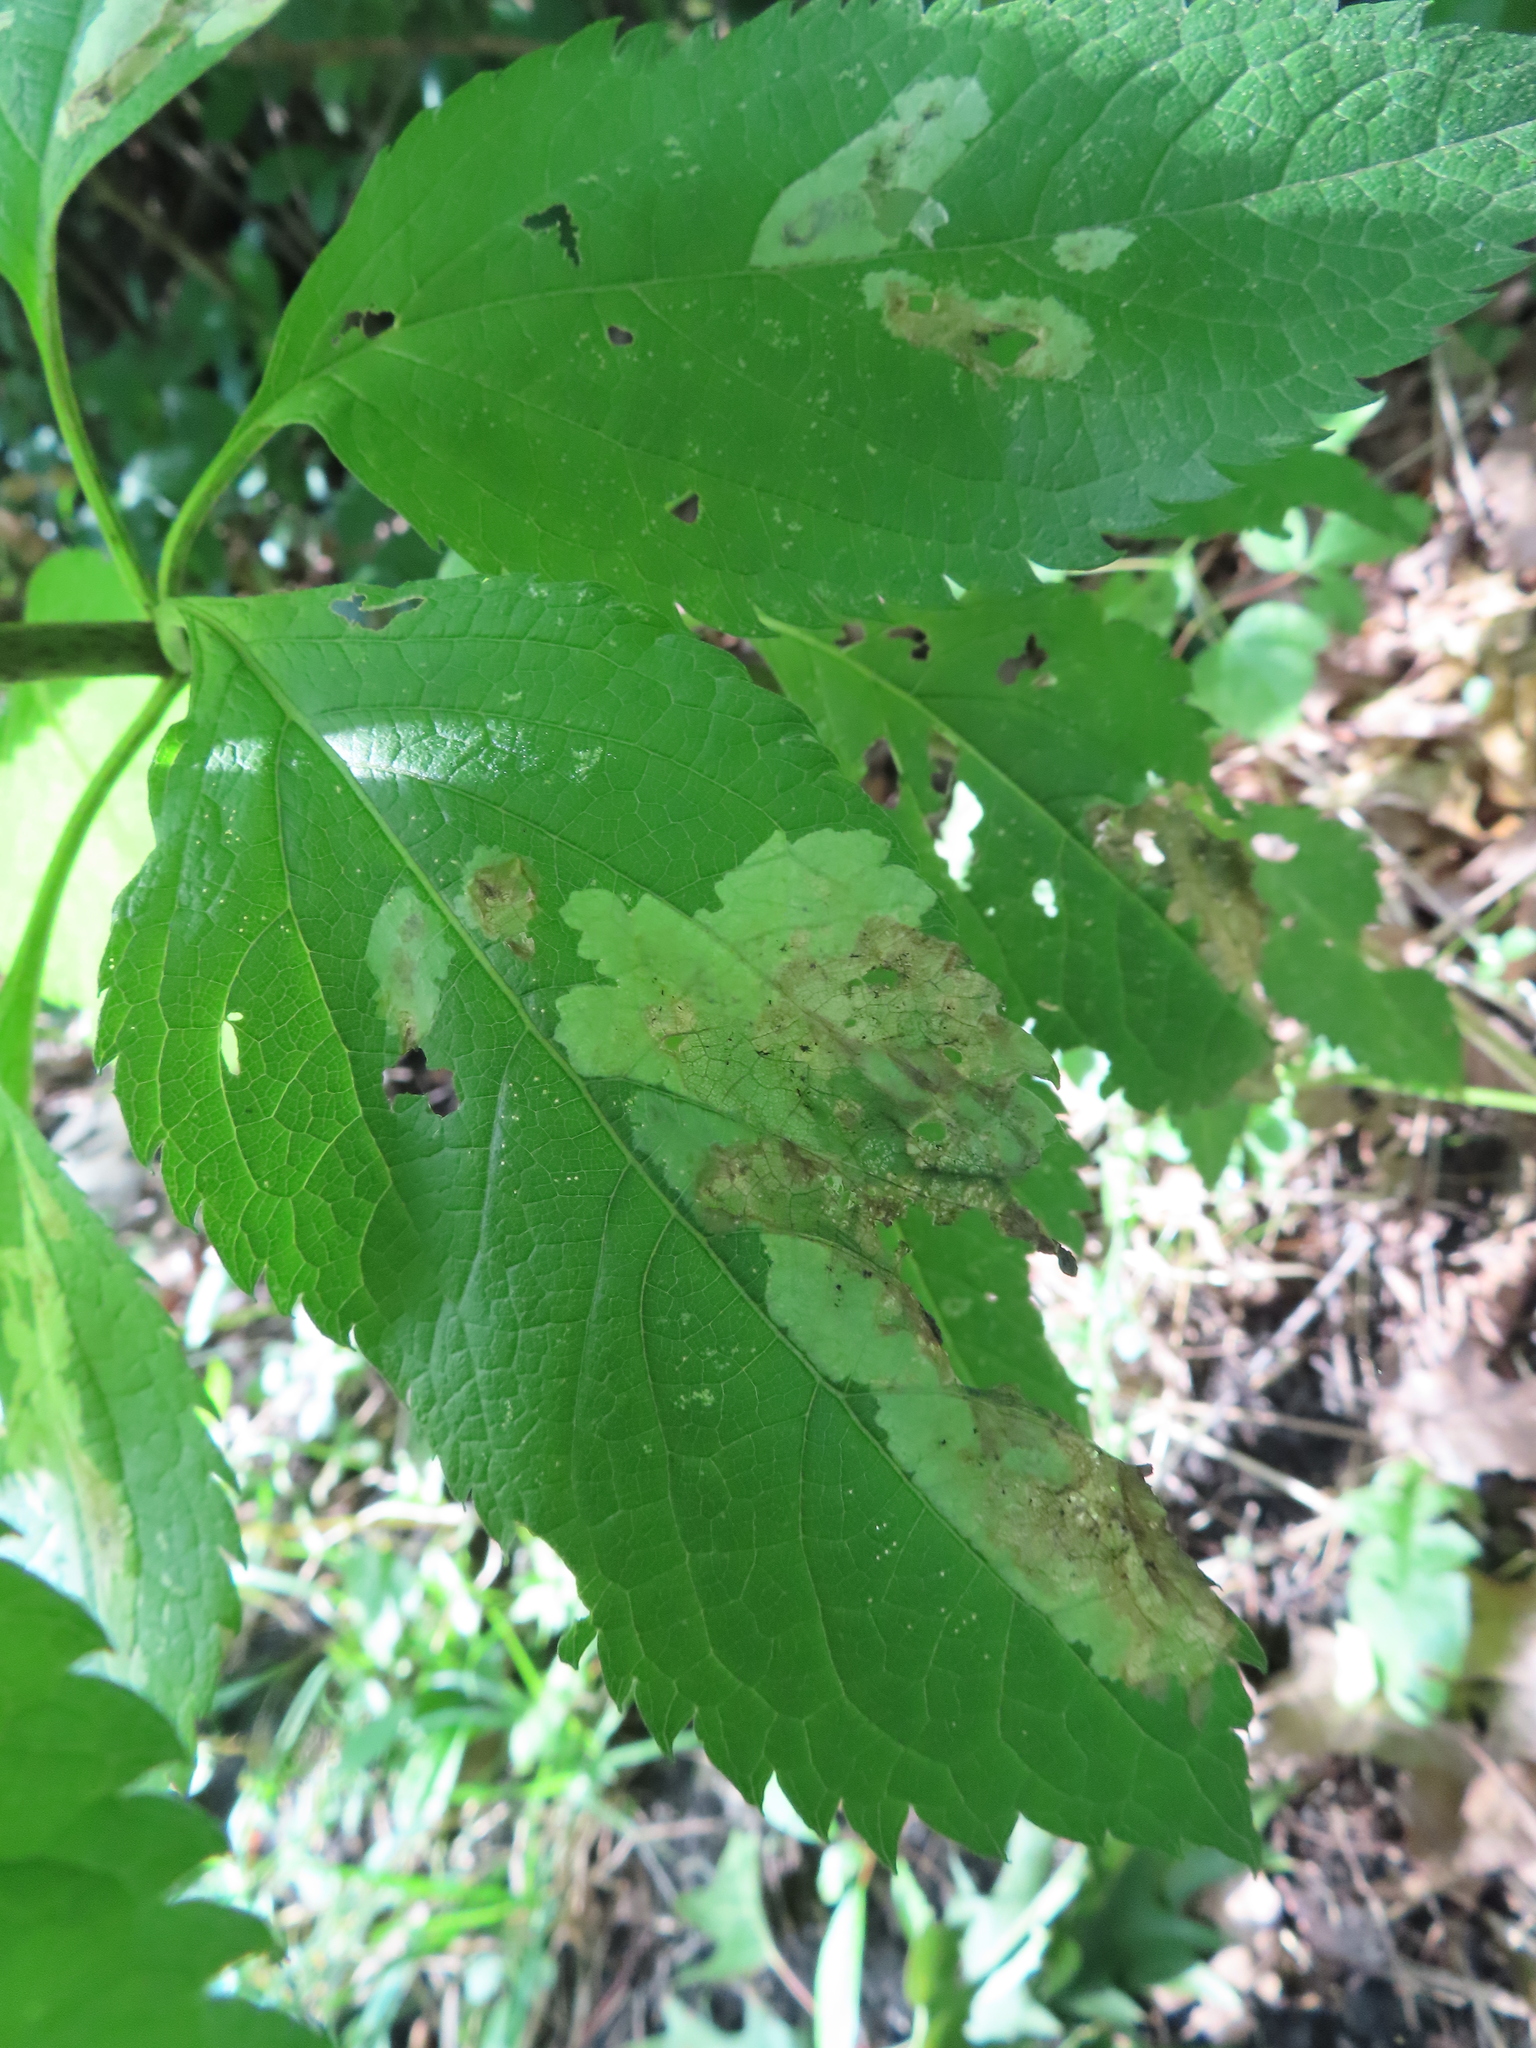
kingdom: Animalia
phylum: Arthropoda
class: Insecta
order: Diptera
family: Agromyzidae
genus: Calycomyza
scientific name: Calycomyza flavinotum
